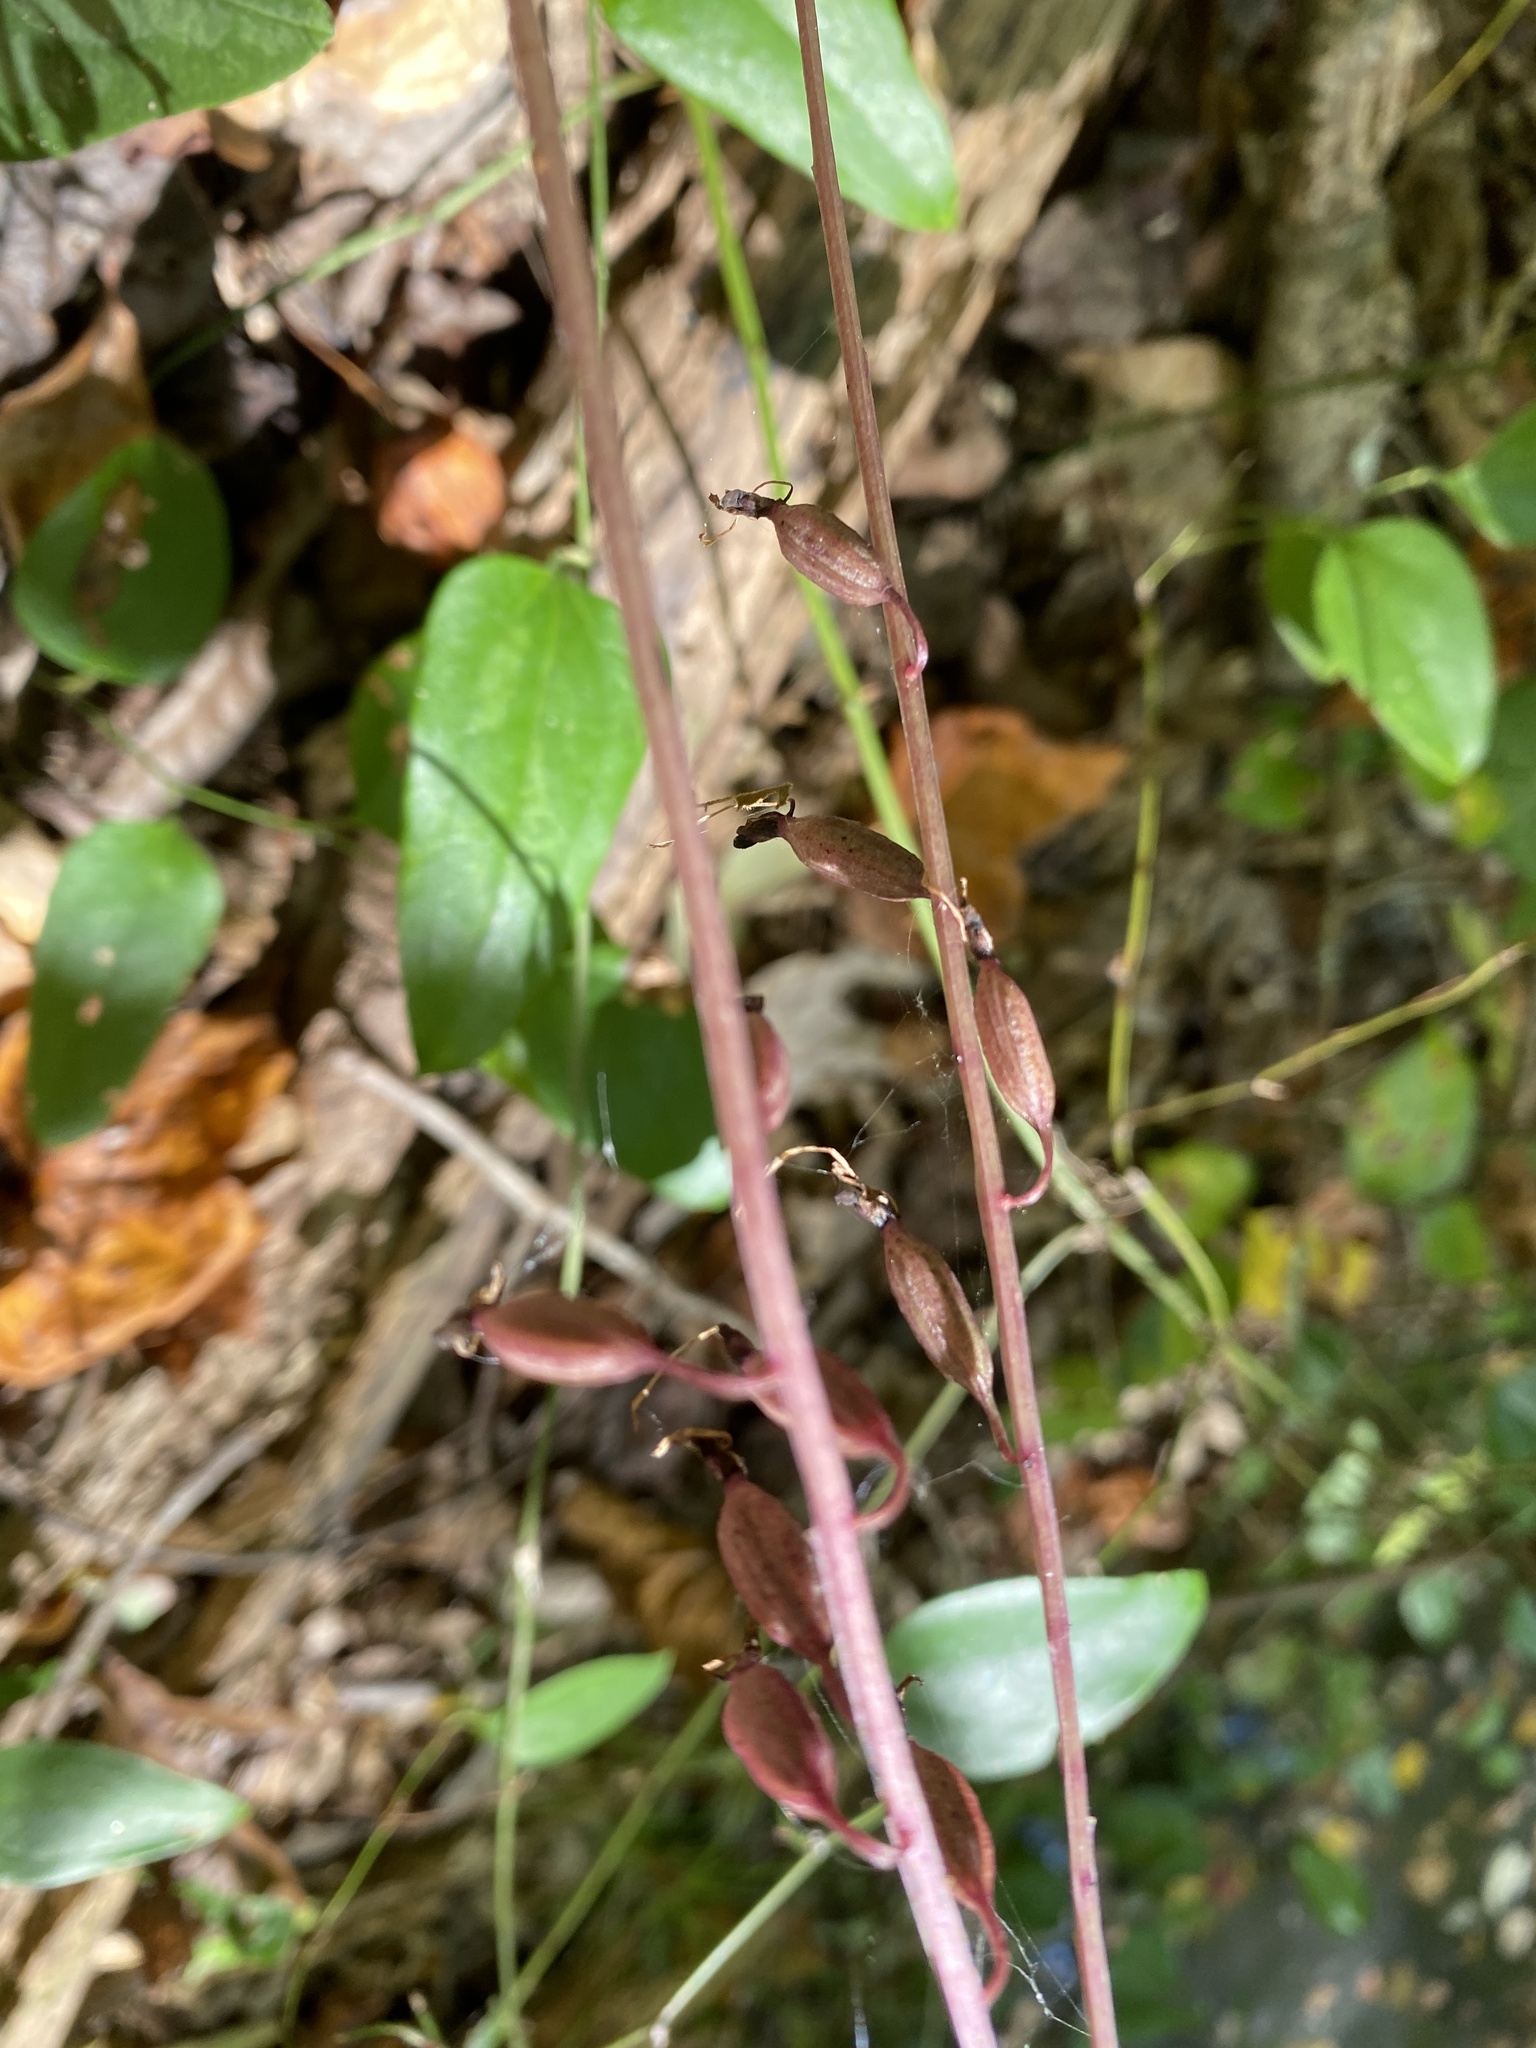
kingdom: Plantae
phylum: Tracheophyta
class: Liliopsida
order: Asparagales
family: Orchidaceae
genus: Tipularia
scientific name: Tipularia discolor
